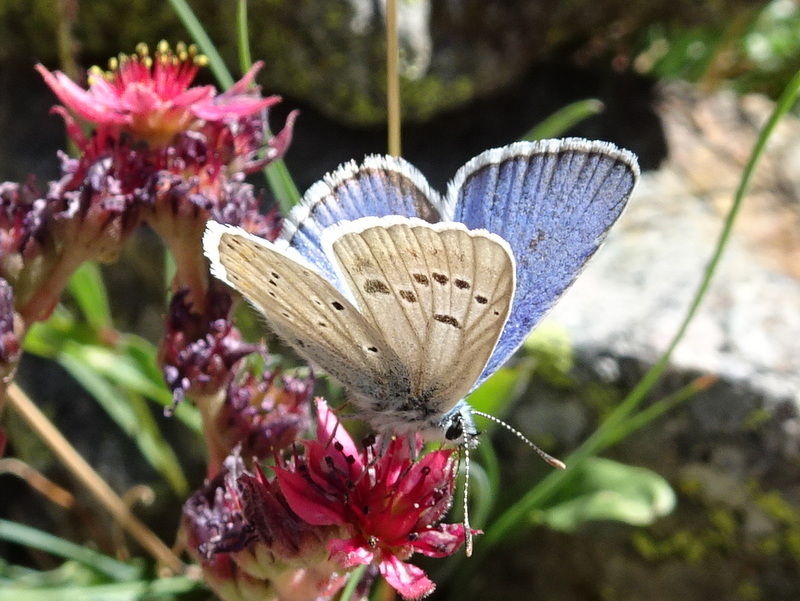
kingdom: Animalia
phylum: Arthropoda
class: Insecta
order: Lepidoptera
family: Lycaenidae
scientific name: Lycaenidae
